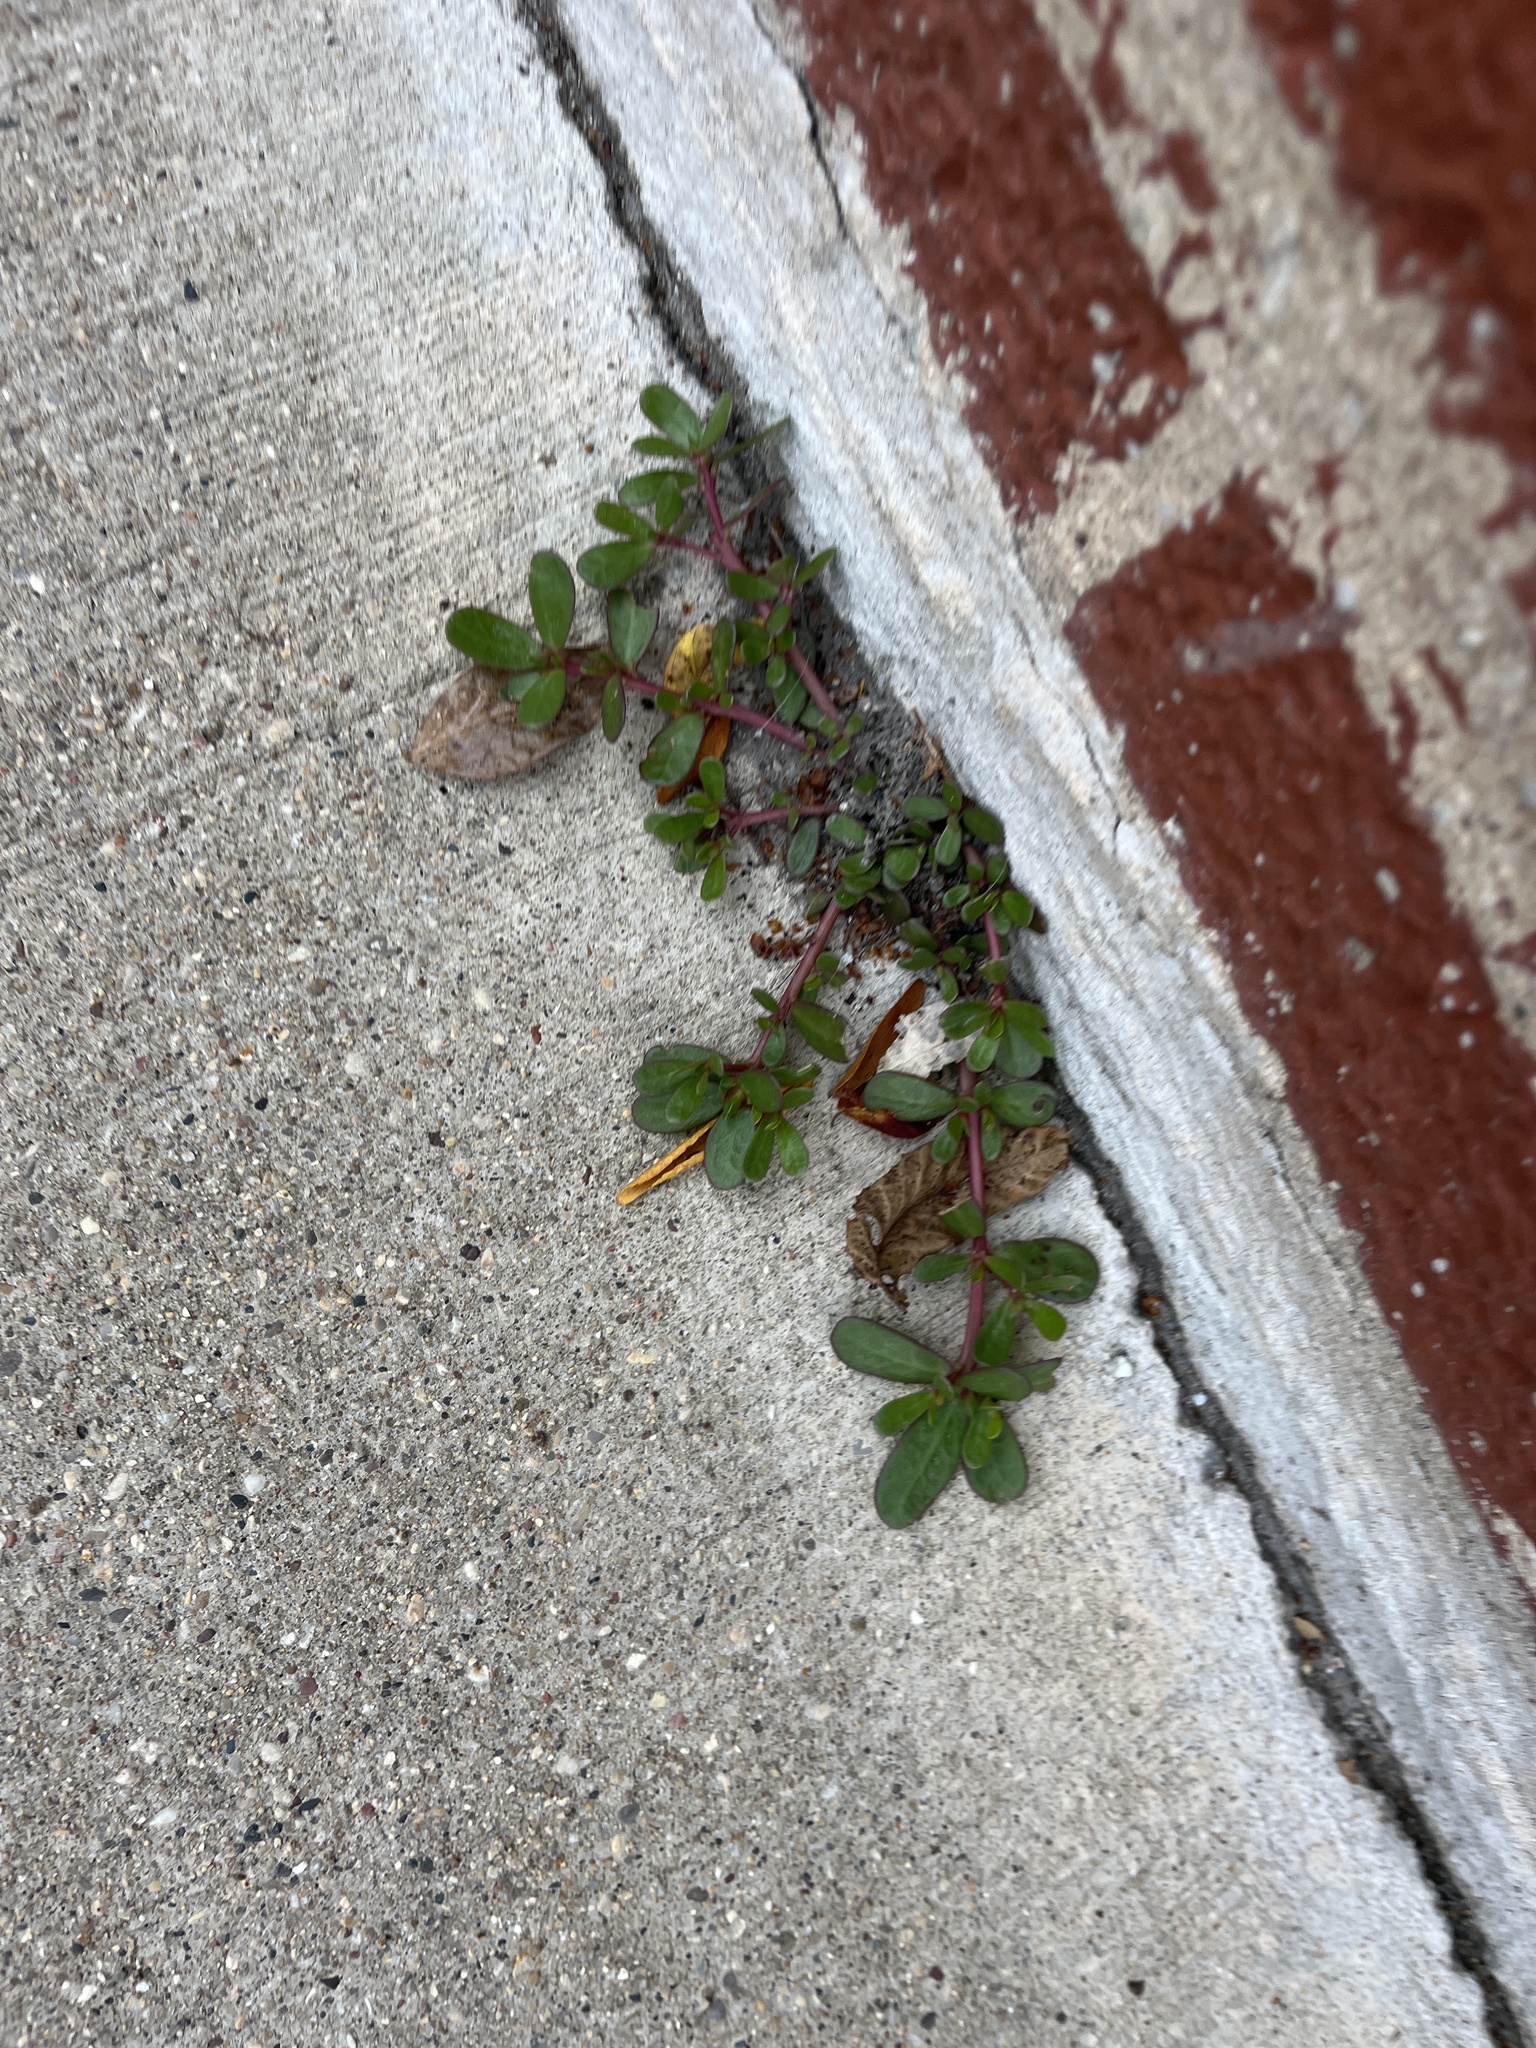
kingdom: Plantae
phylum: Tracheophyta
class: Magnoliopsida
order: Caryophyllales
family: Portulacaceae
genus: Portulaca
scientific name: Portulaca oleracea
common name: Common purslane
